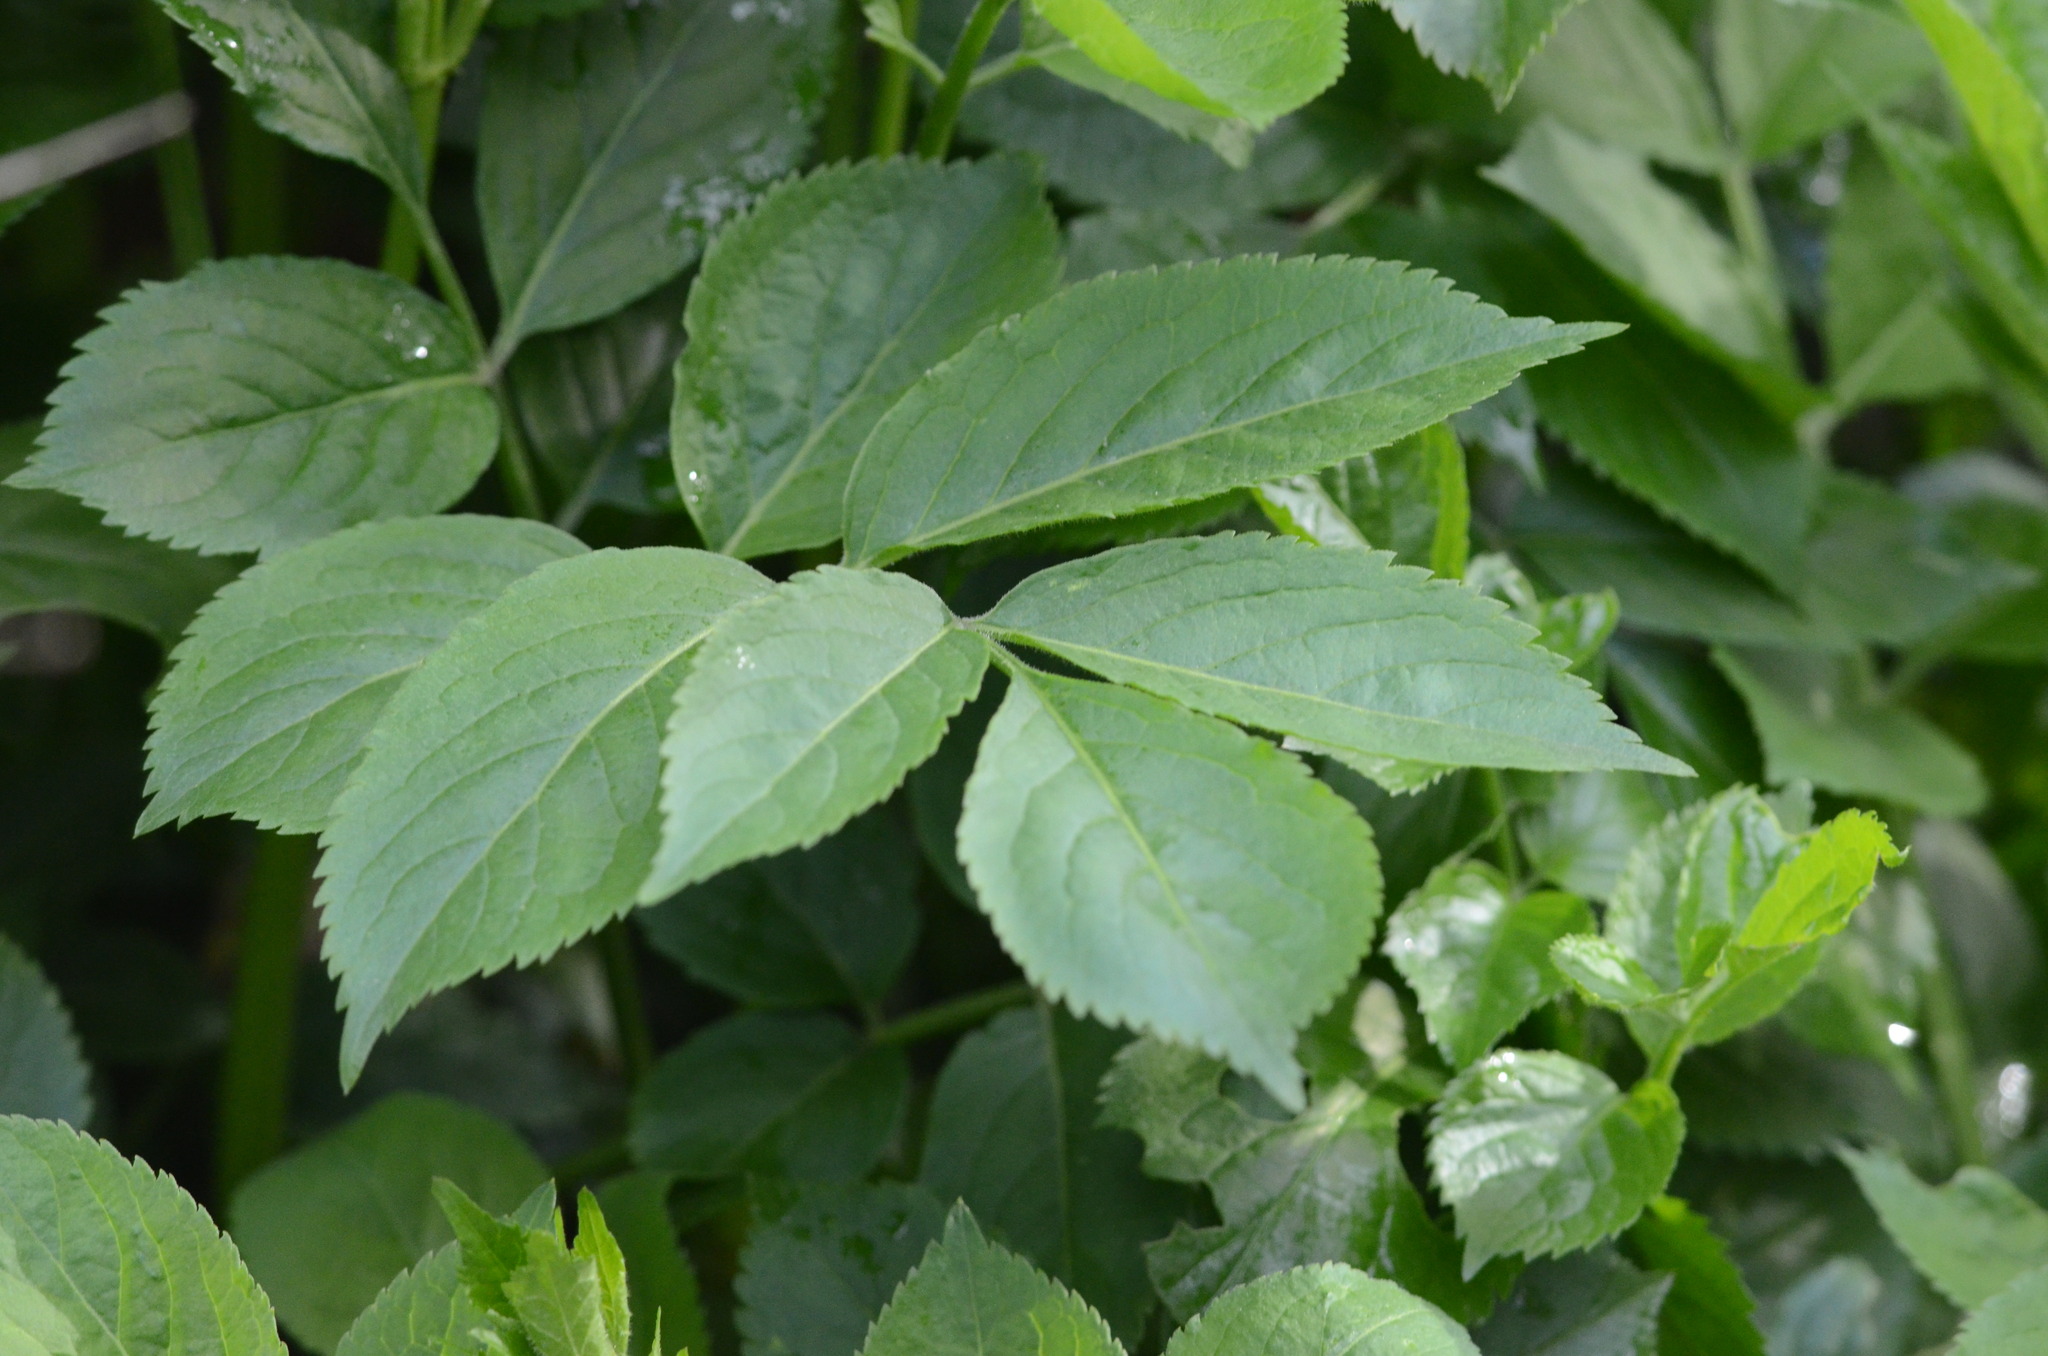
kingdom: Plantae
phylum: Tracheophyta
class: Magnoliopsida
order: Dipsacales
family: Viburnaceae
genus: Sambucus
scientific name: Sambucus nigra
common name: Elder
